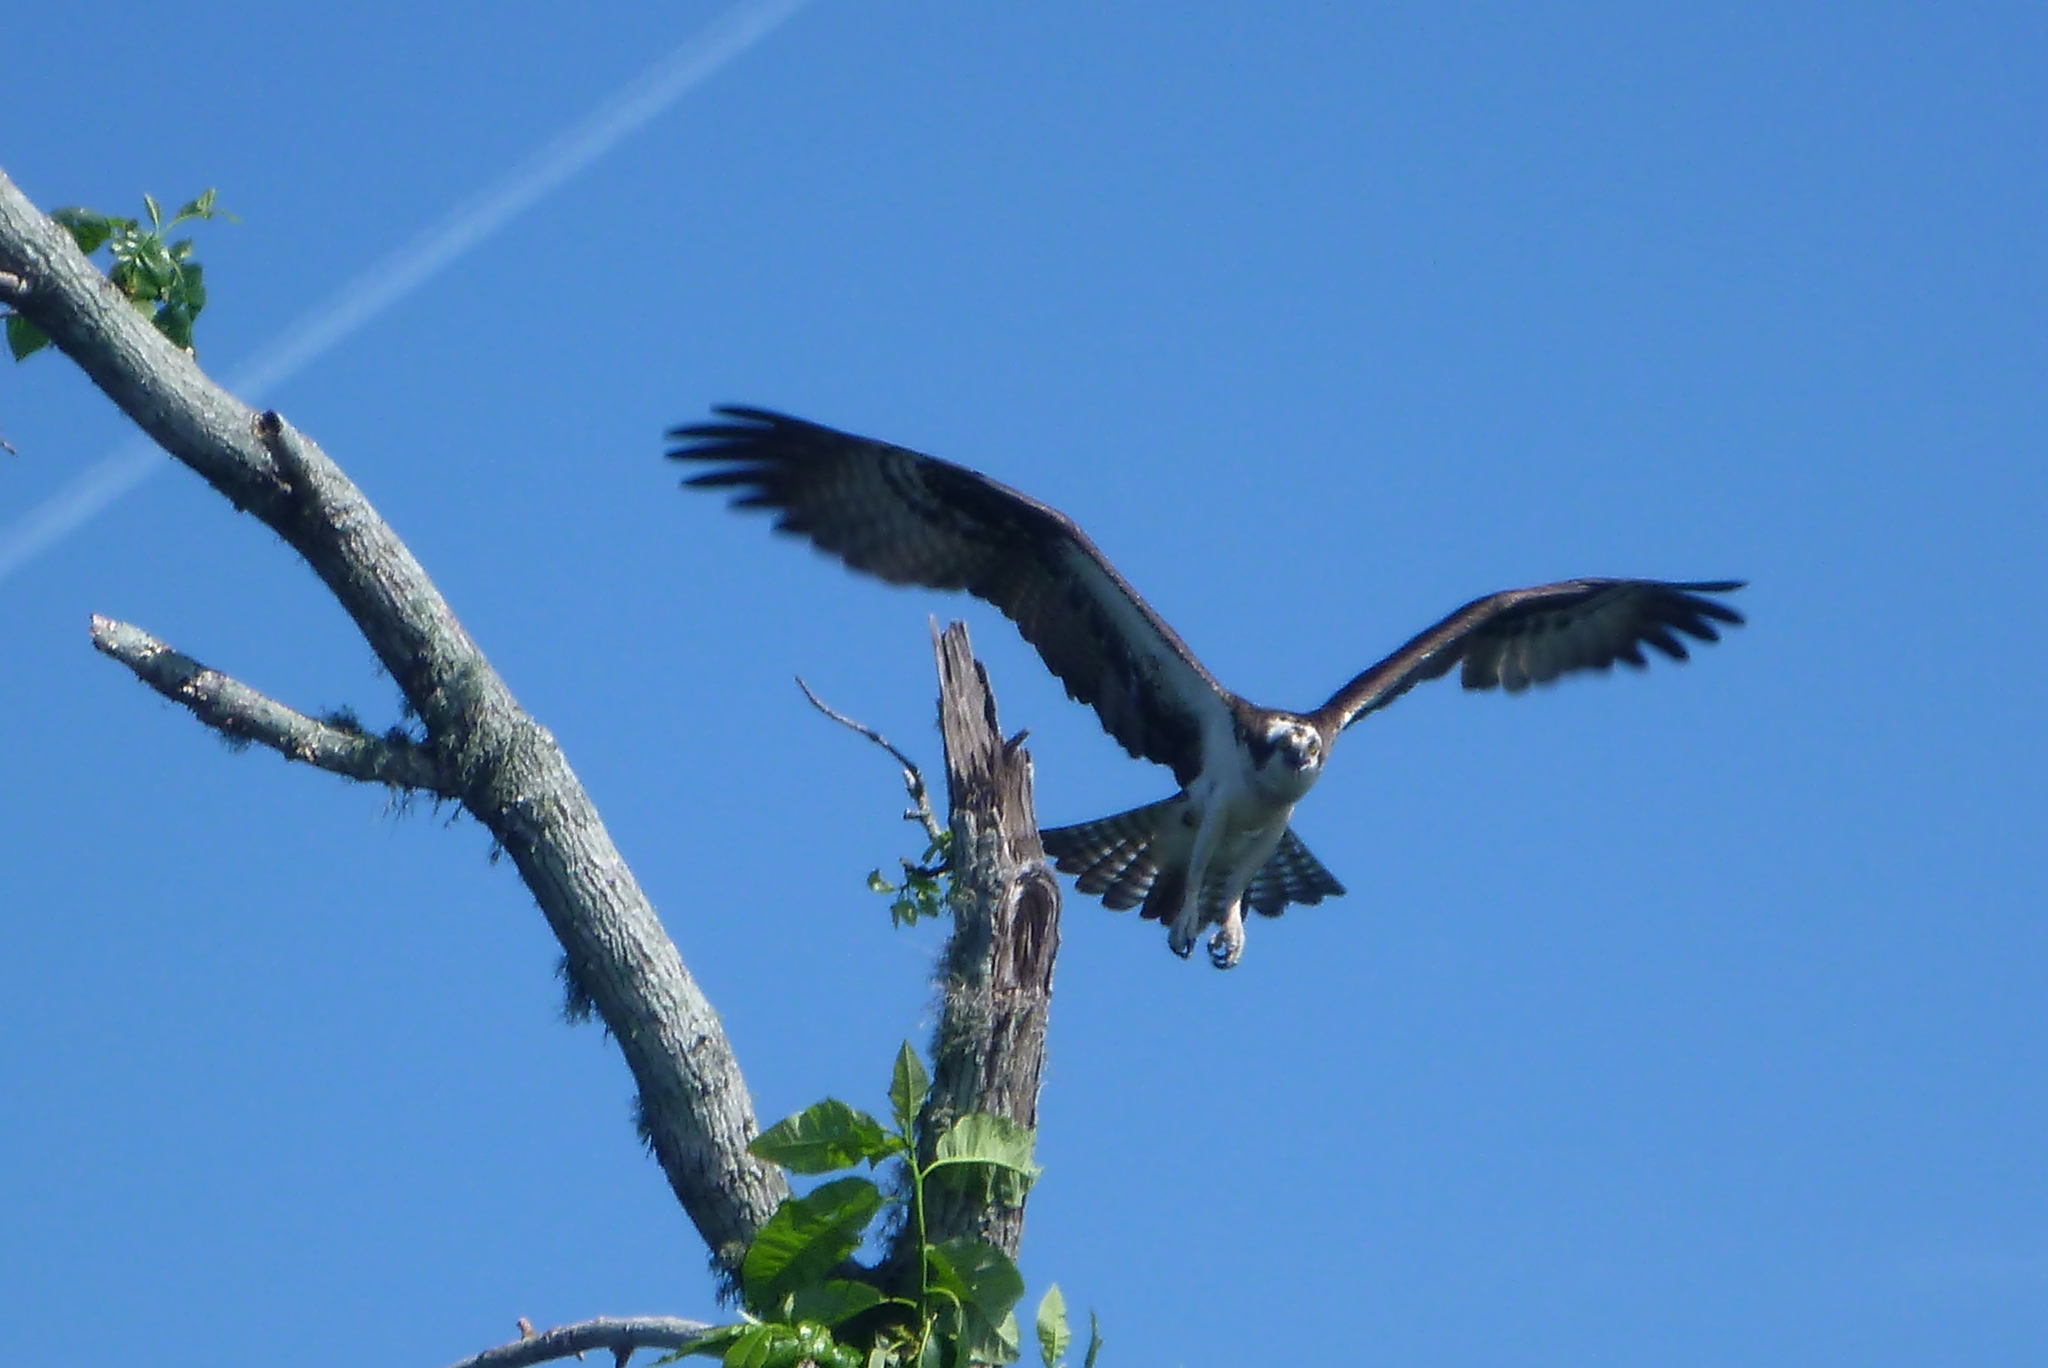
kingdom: Animalia
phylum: Chordata
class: Aves
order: Accipitriformes
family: Pandionidae
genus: Pandion
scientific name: Pandion haliaetus
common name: Osprey
